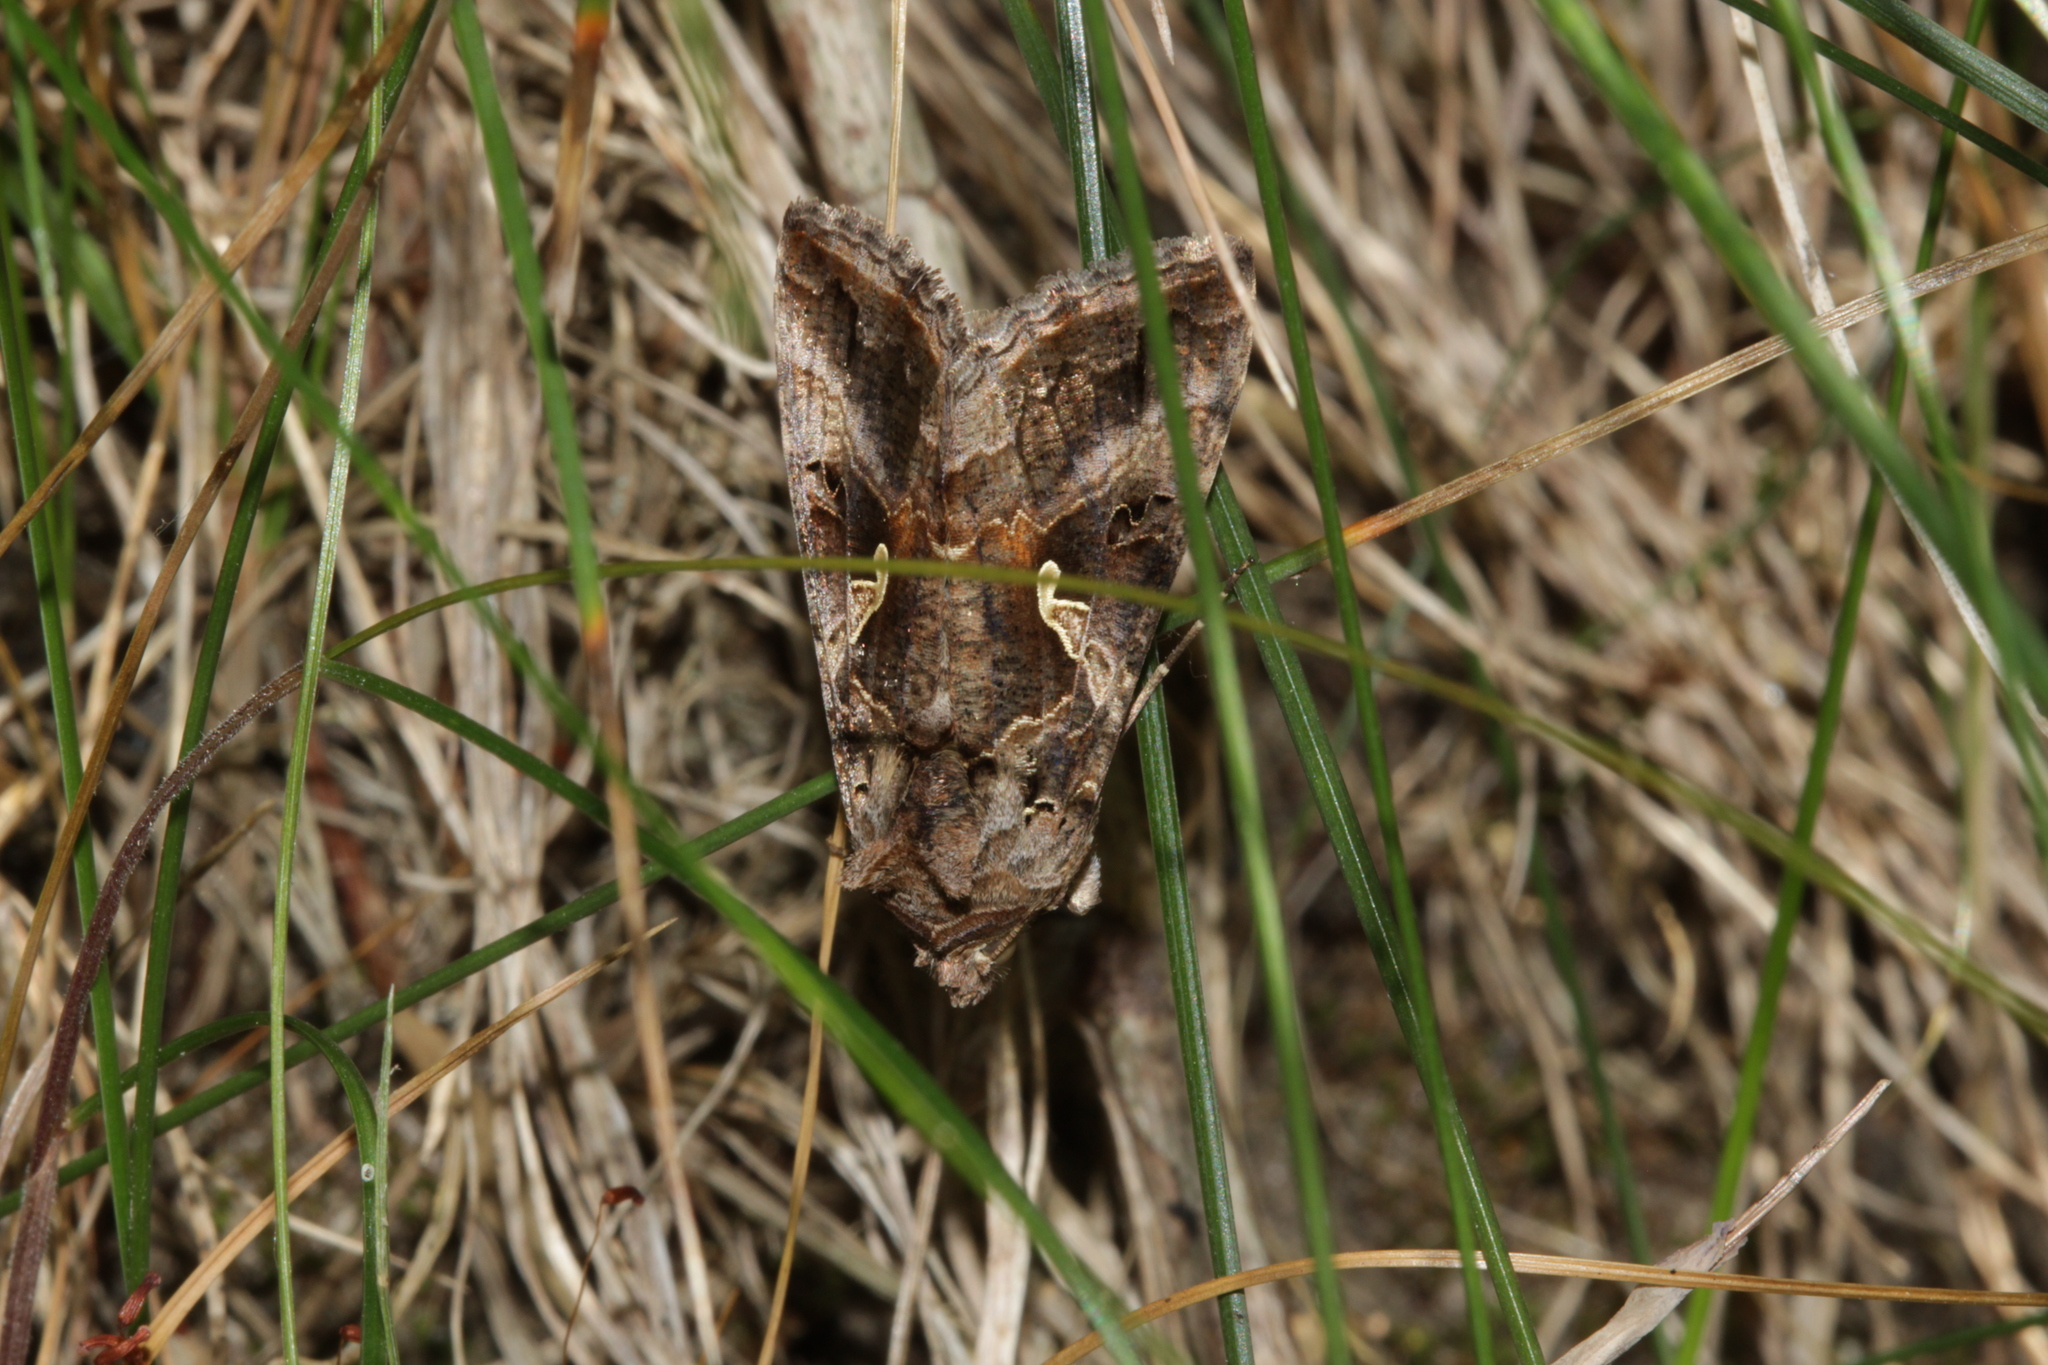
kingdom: Animalia
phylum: Arthropoda
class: Insecta
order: Lepidoptera
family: Noctuidae
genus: Autographa
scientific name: Autographa gamma
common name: Silver y
